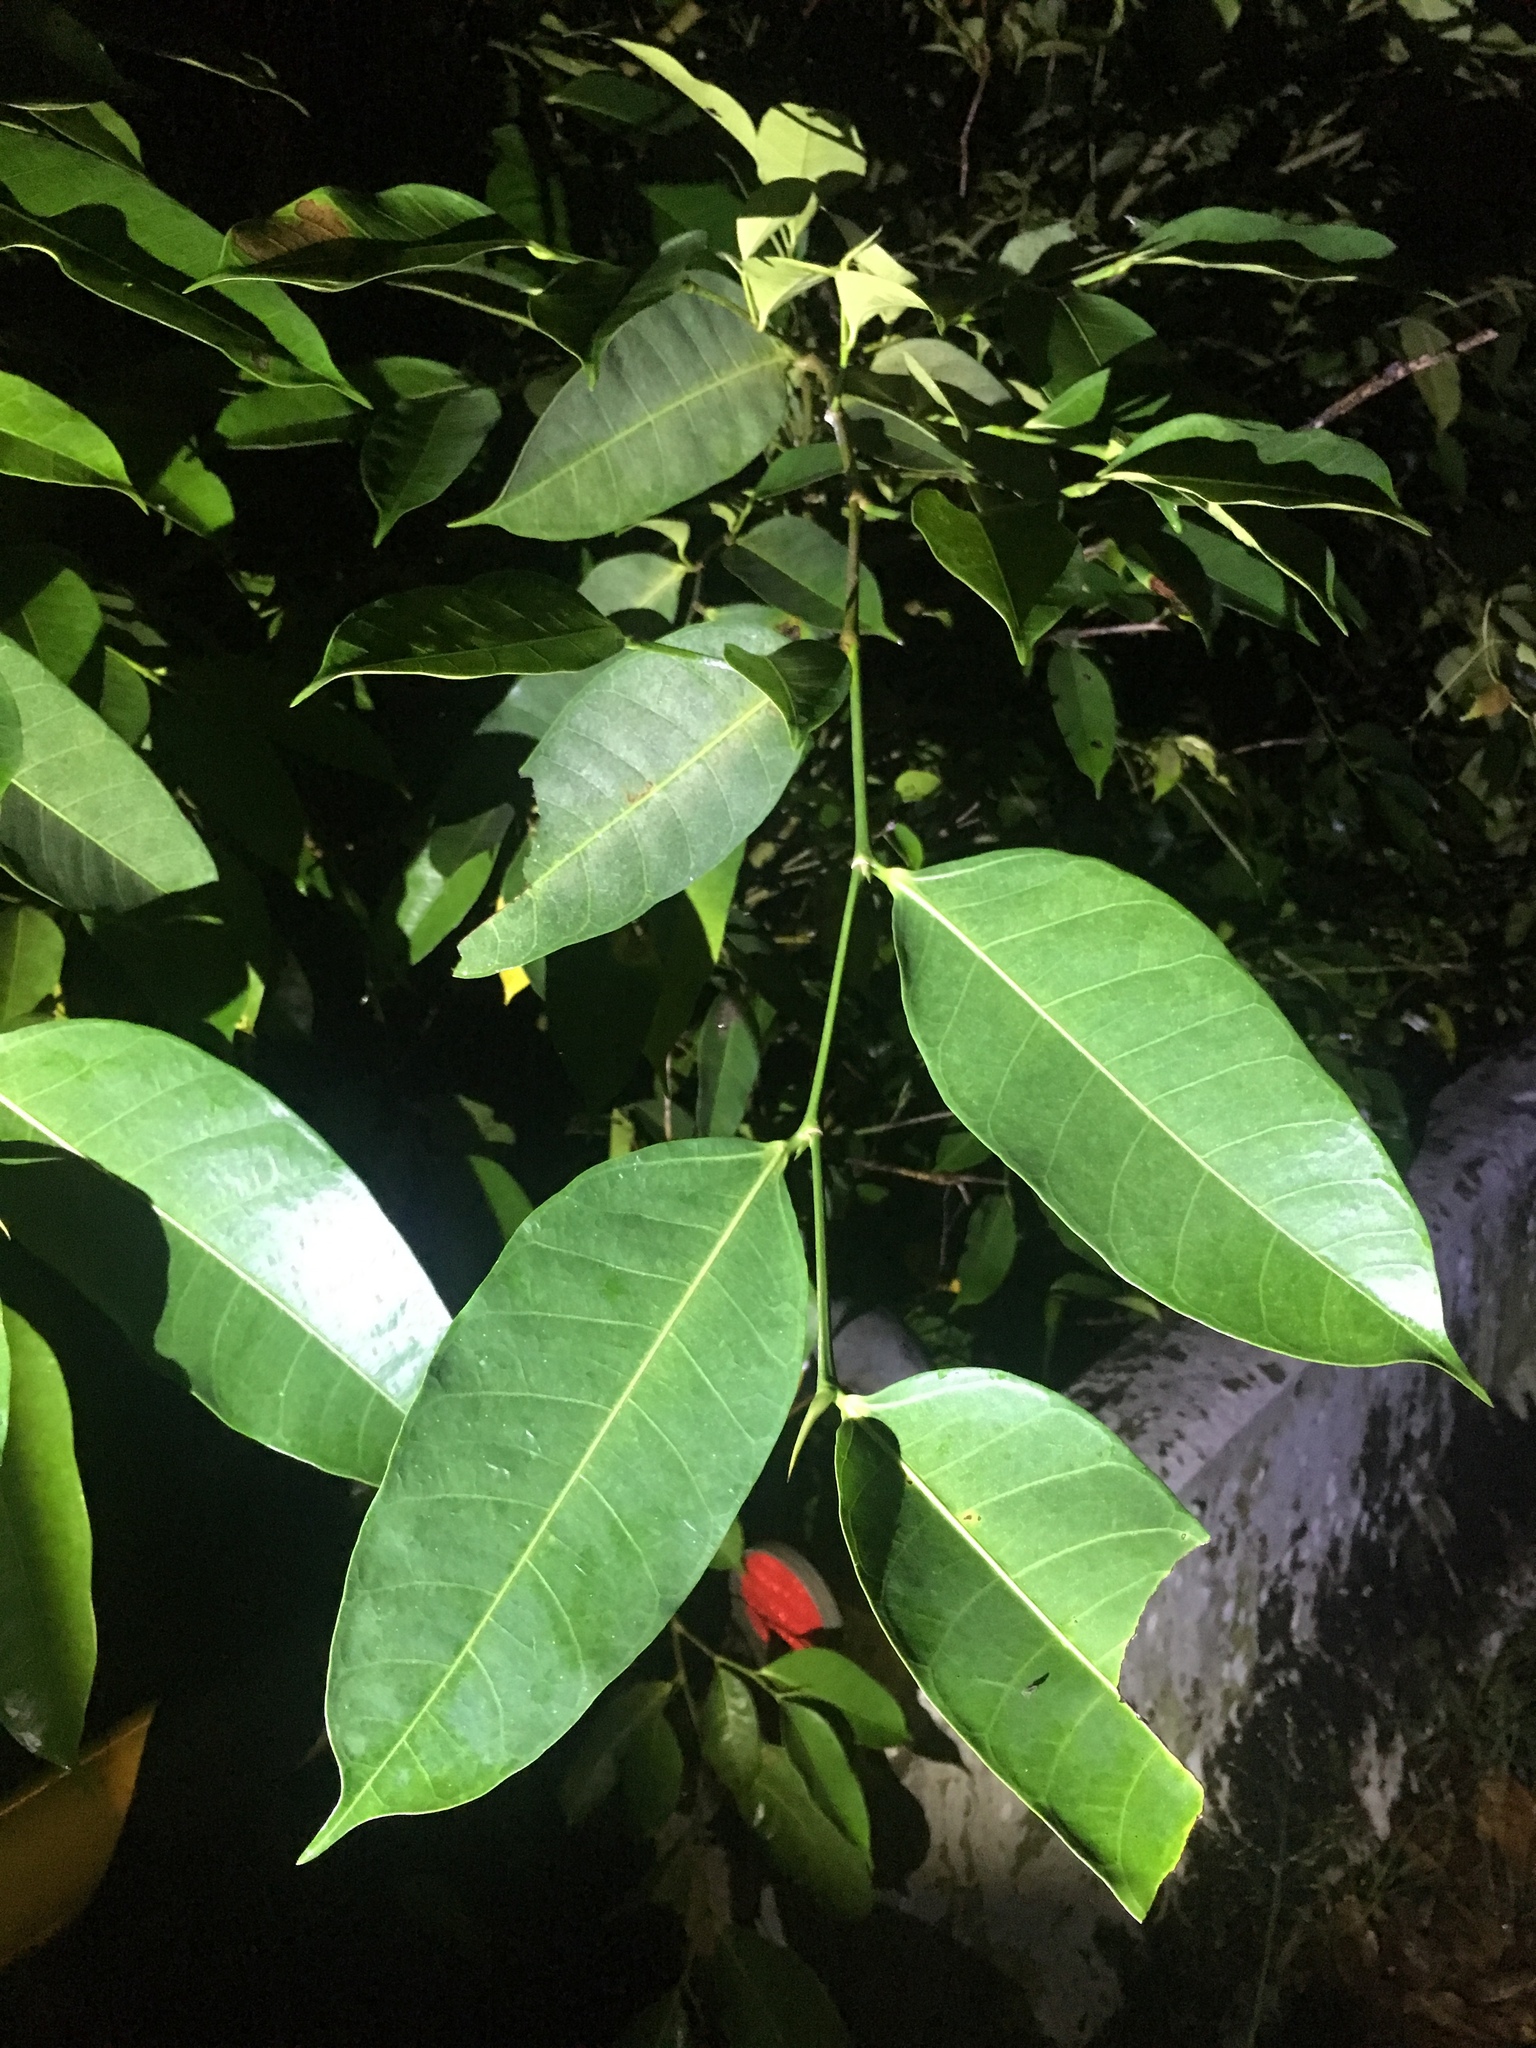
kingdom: Plantae
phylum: Tracheophyta
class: Magnoliopsida
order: Rosales
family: Moraceae
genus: Ficus
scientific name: Ficus virgata
